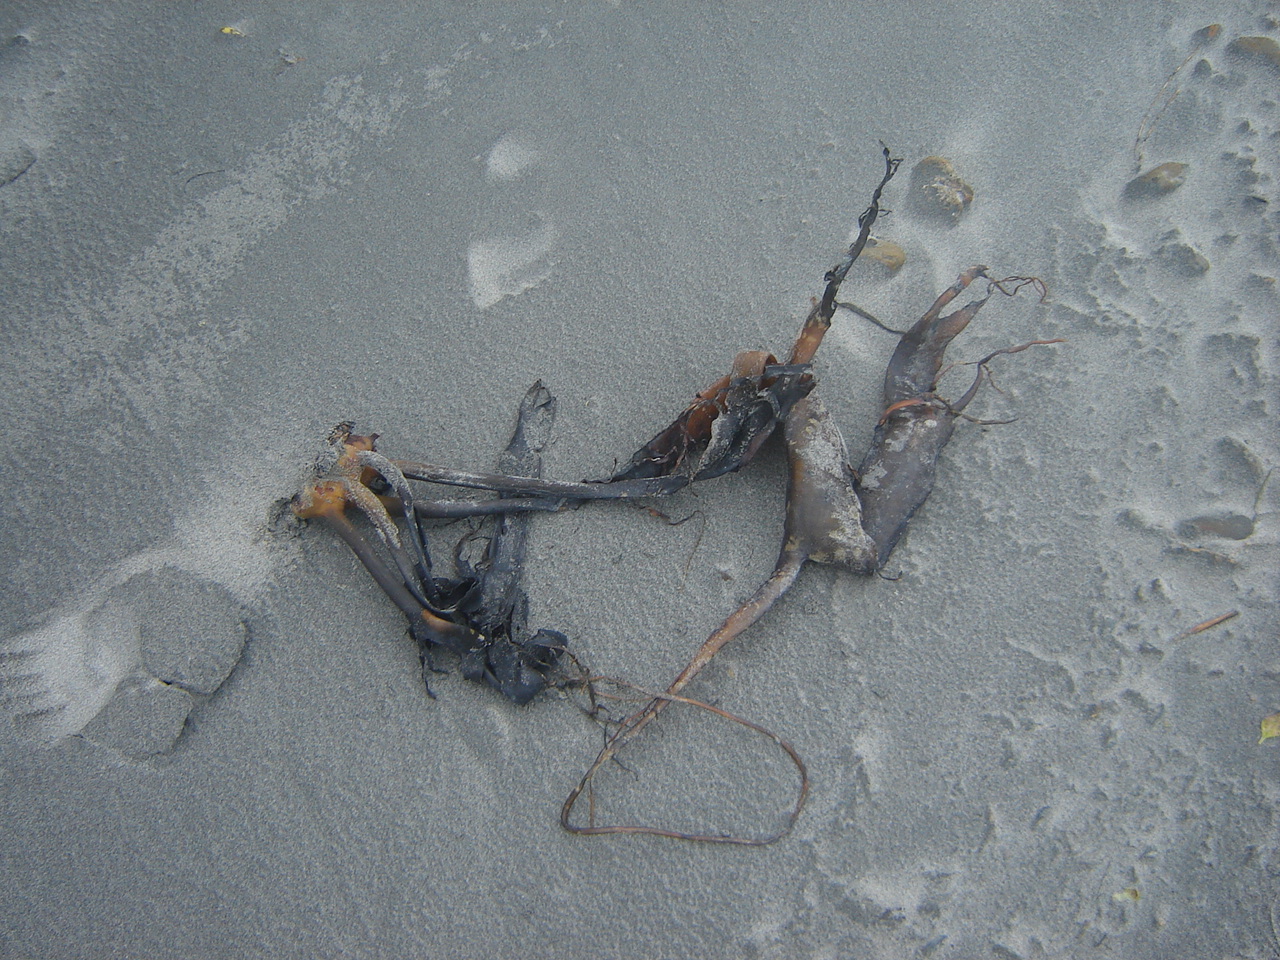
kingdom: Chromista
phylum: Ochrophyta
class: Phaeophyceae
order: Fucales
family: Durvillaeaceae
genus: Durvillaea
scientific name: Durvillaea antarctica
